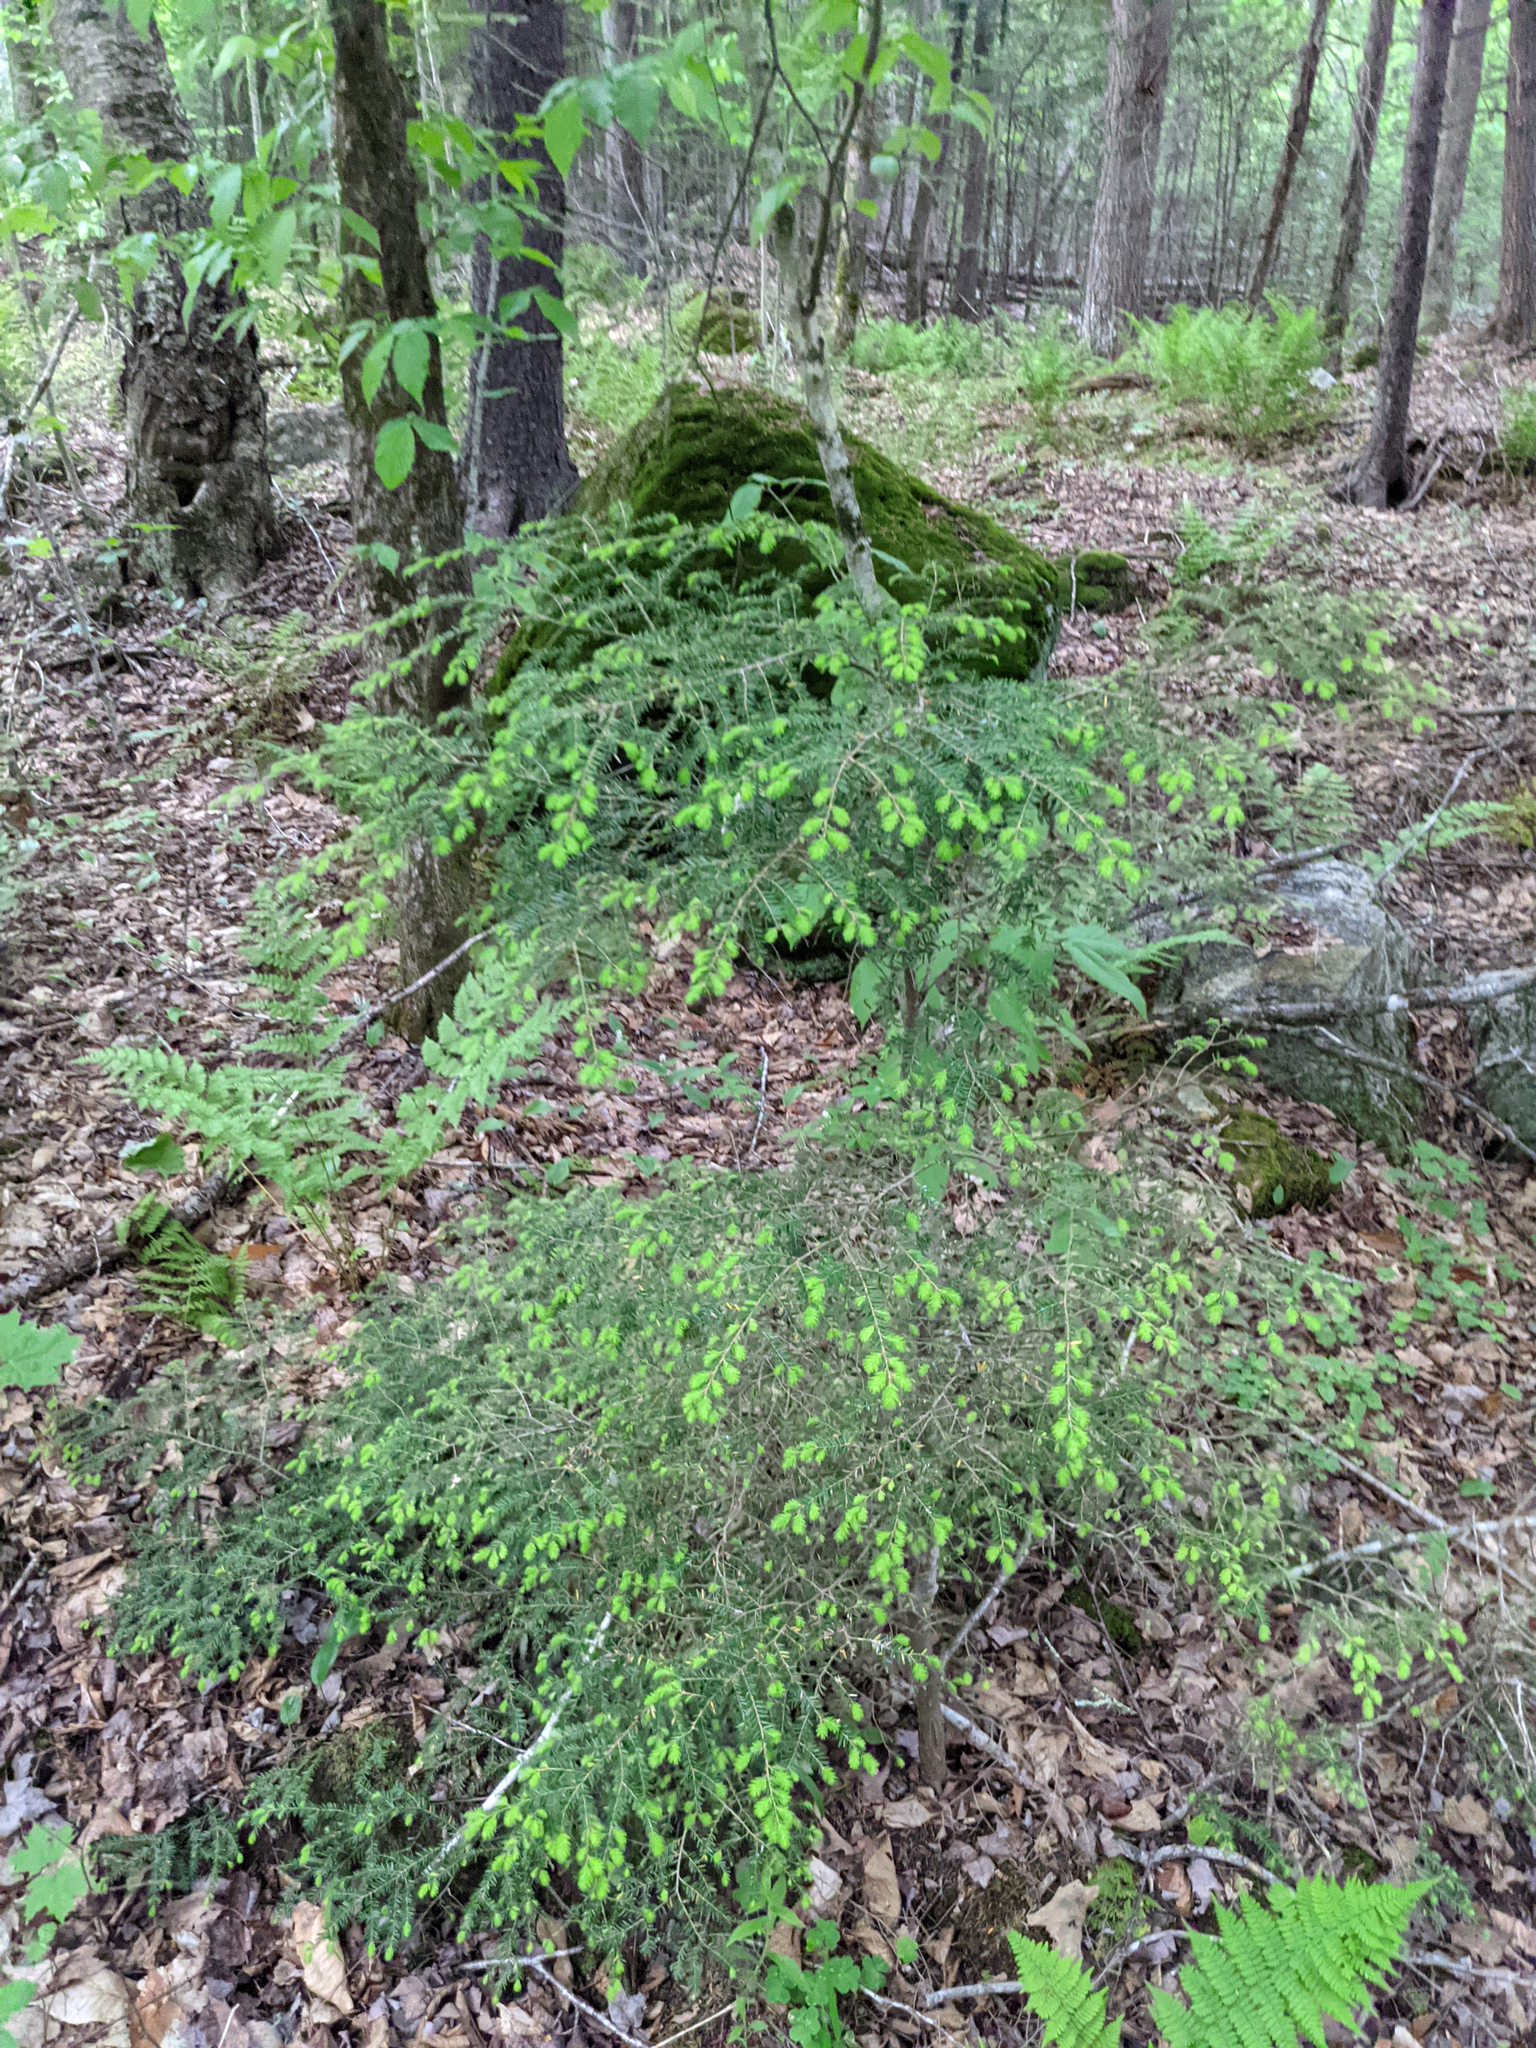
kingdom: Plantae
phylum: Tracheophyta
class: Pinopsida
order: Pinales
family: Pinaceae
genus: Tsuga
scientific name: Tsuga canadensis
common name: Eastern hemlock
